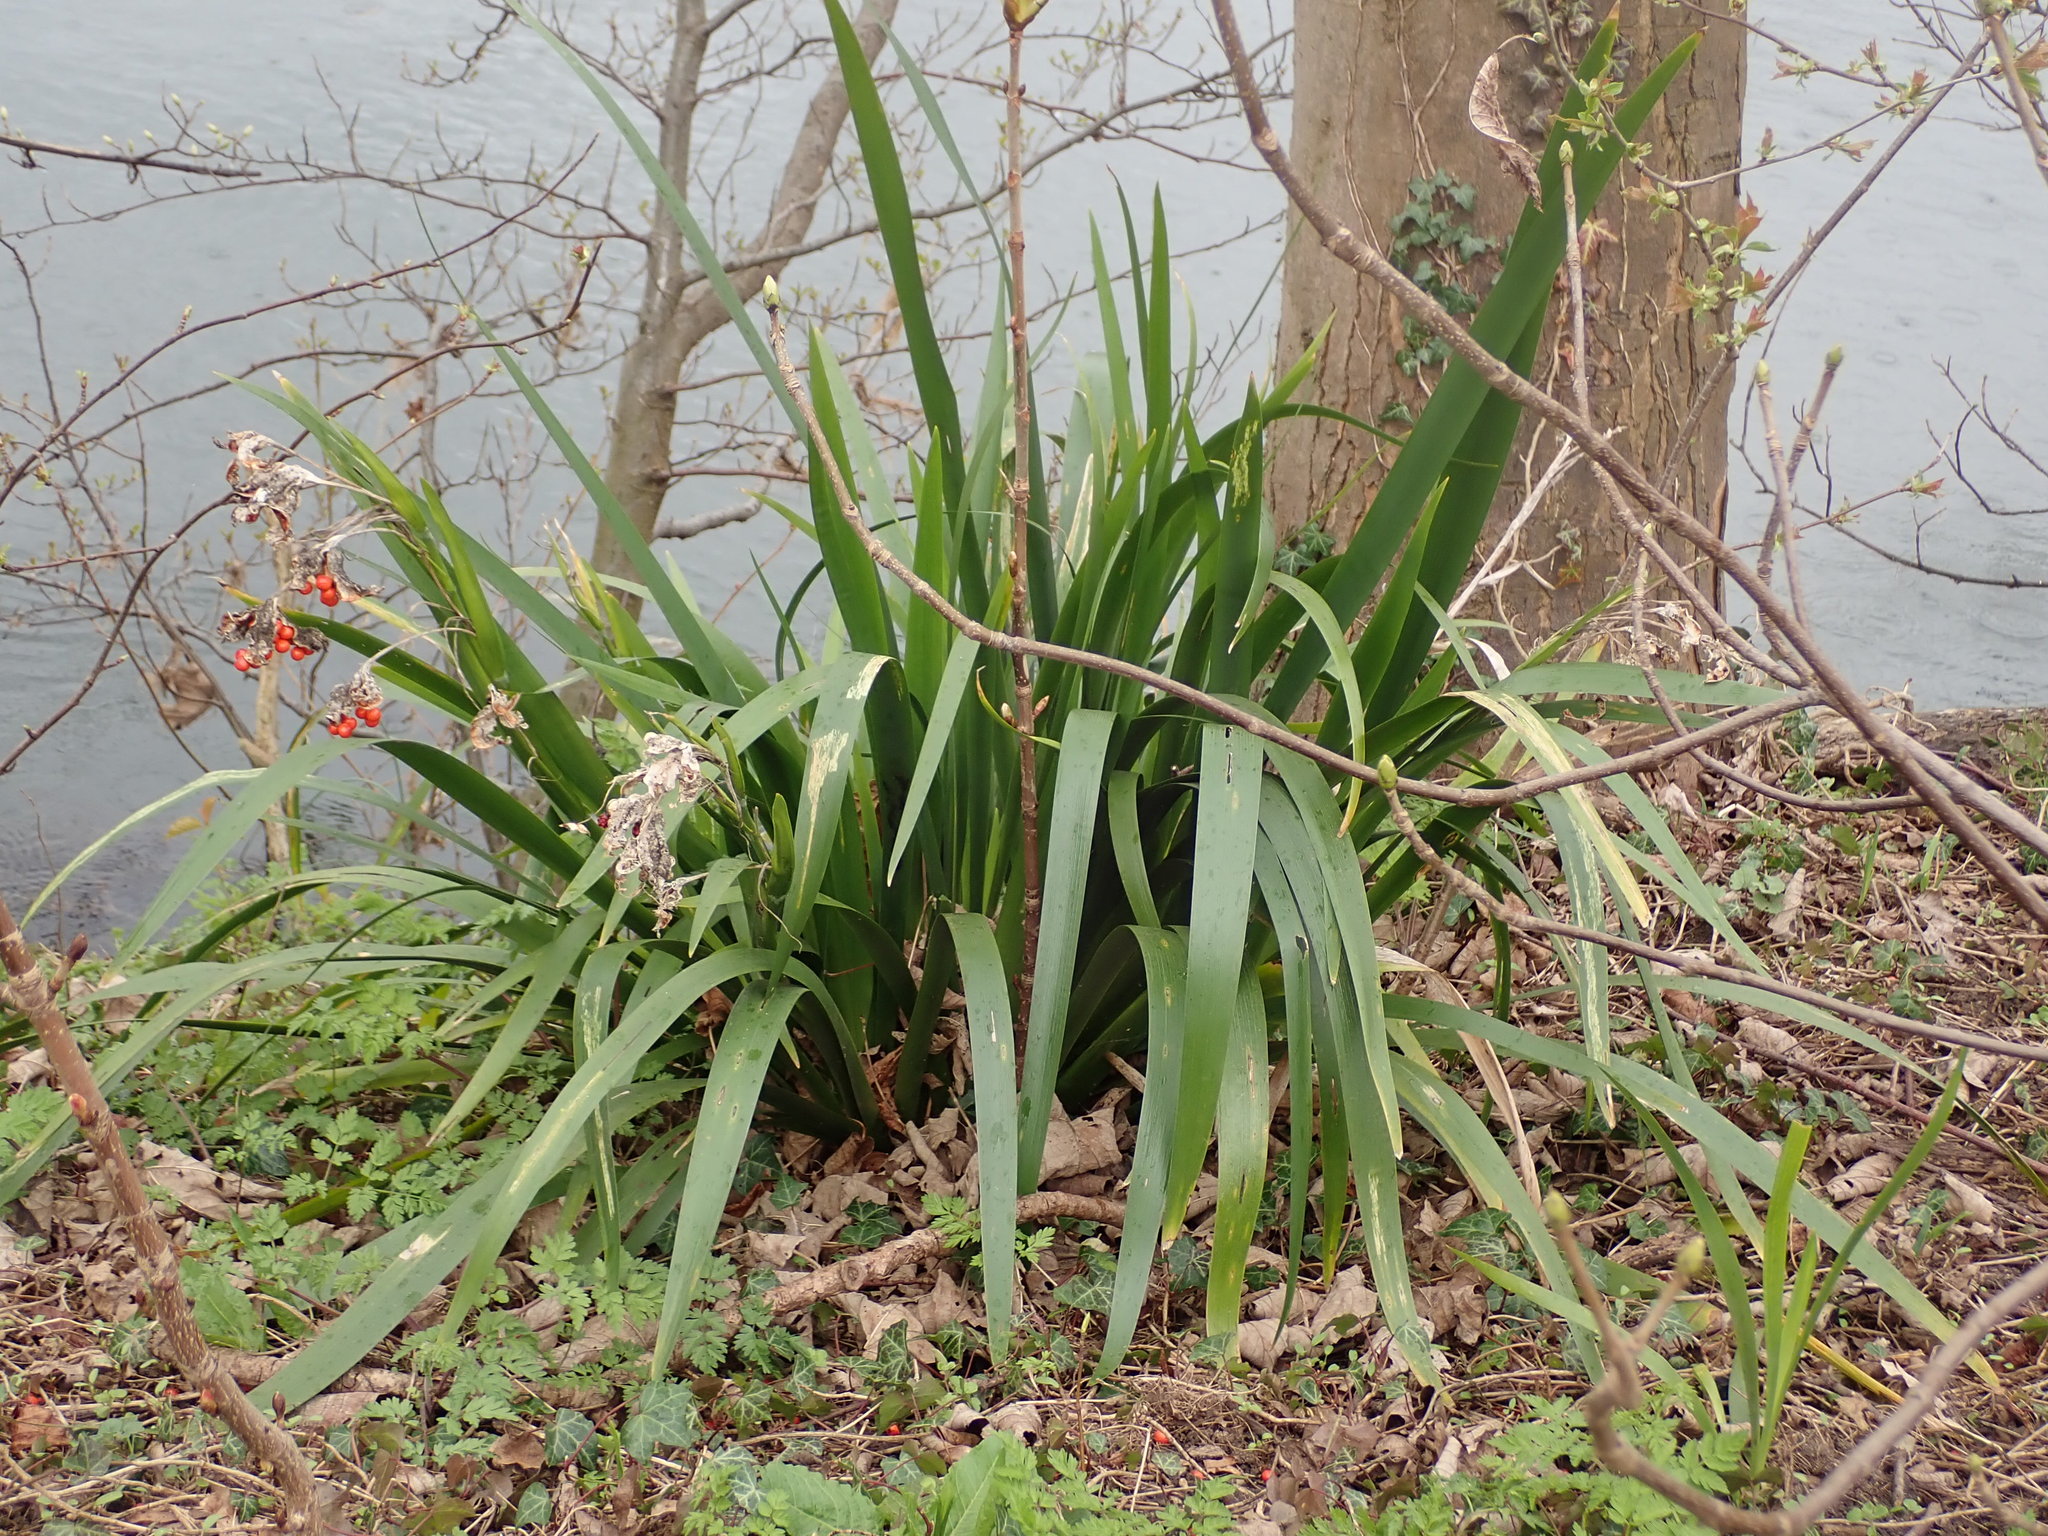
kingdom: Plantae
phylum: Tracheophyta
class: Liliopsida
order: Asparagales
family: Iridaceae
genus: Iris
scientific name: Iris foetidissima
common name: Stinking iris
